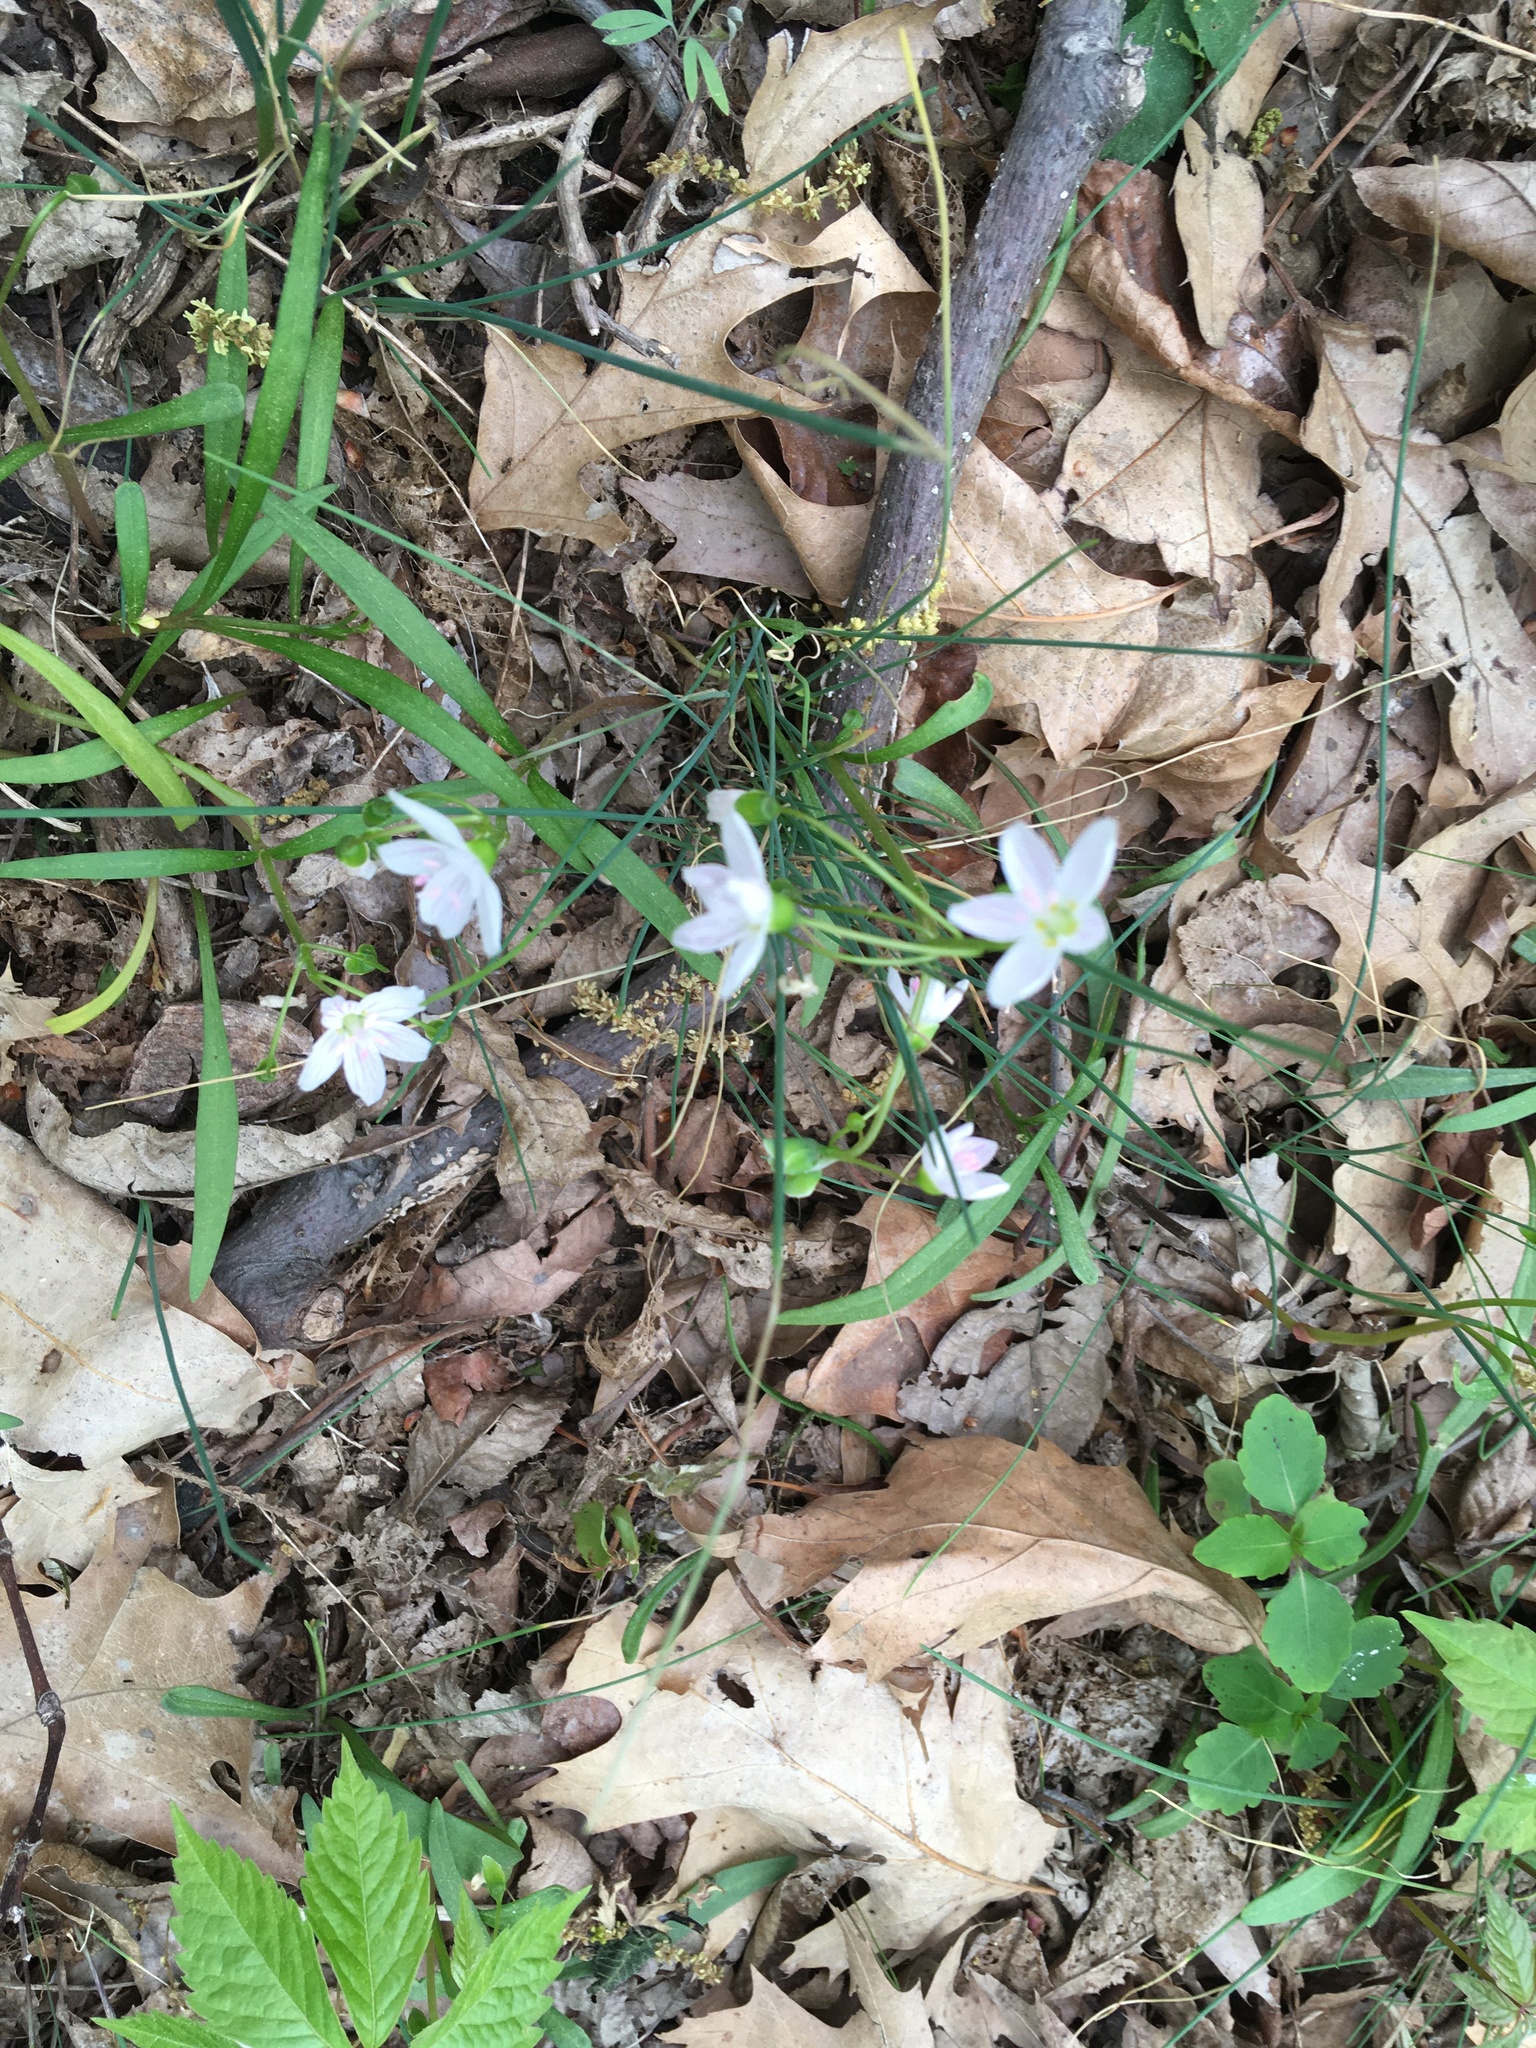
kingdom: Plantae
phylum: Tracheophyta
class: Magnoliopsida
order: Caryophyllales
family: Montiaceae
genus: Claytonia
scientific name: Claytonia virginica
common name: Virginia springbeauty
